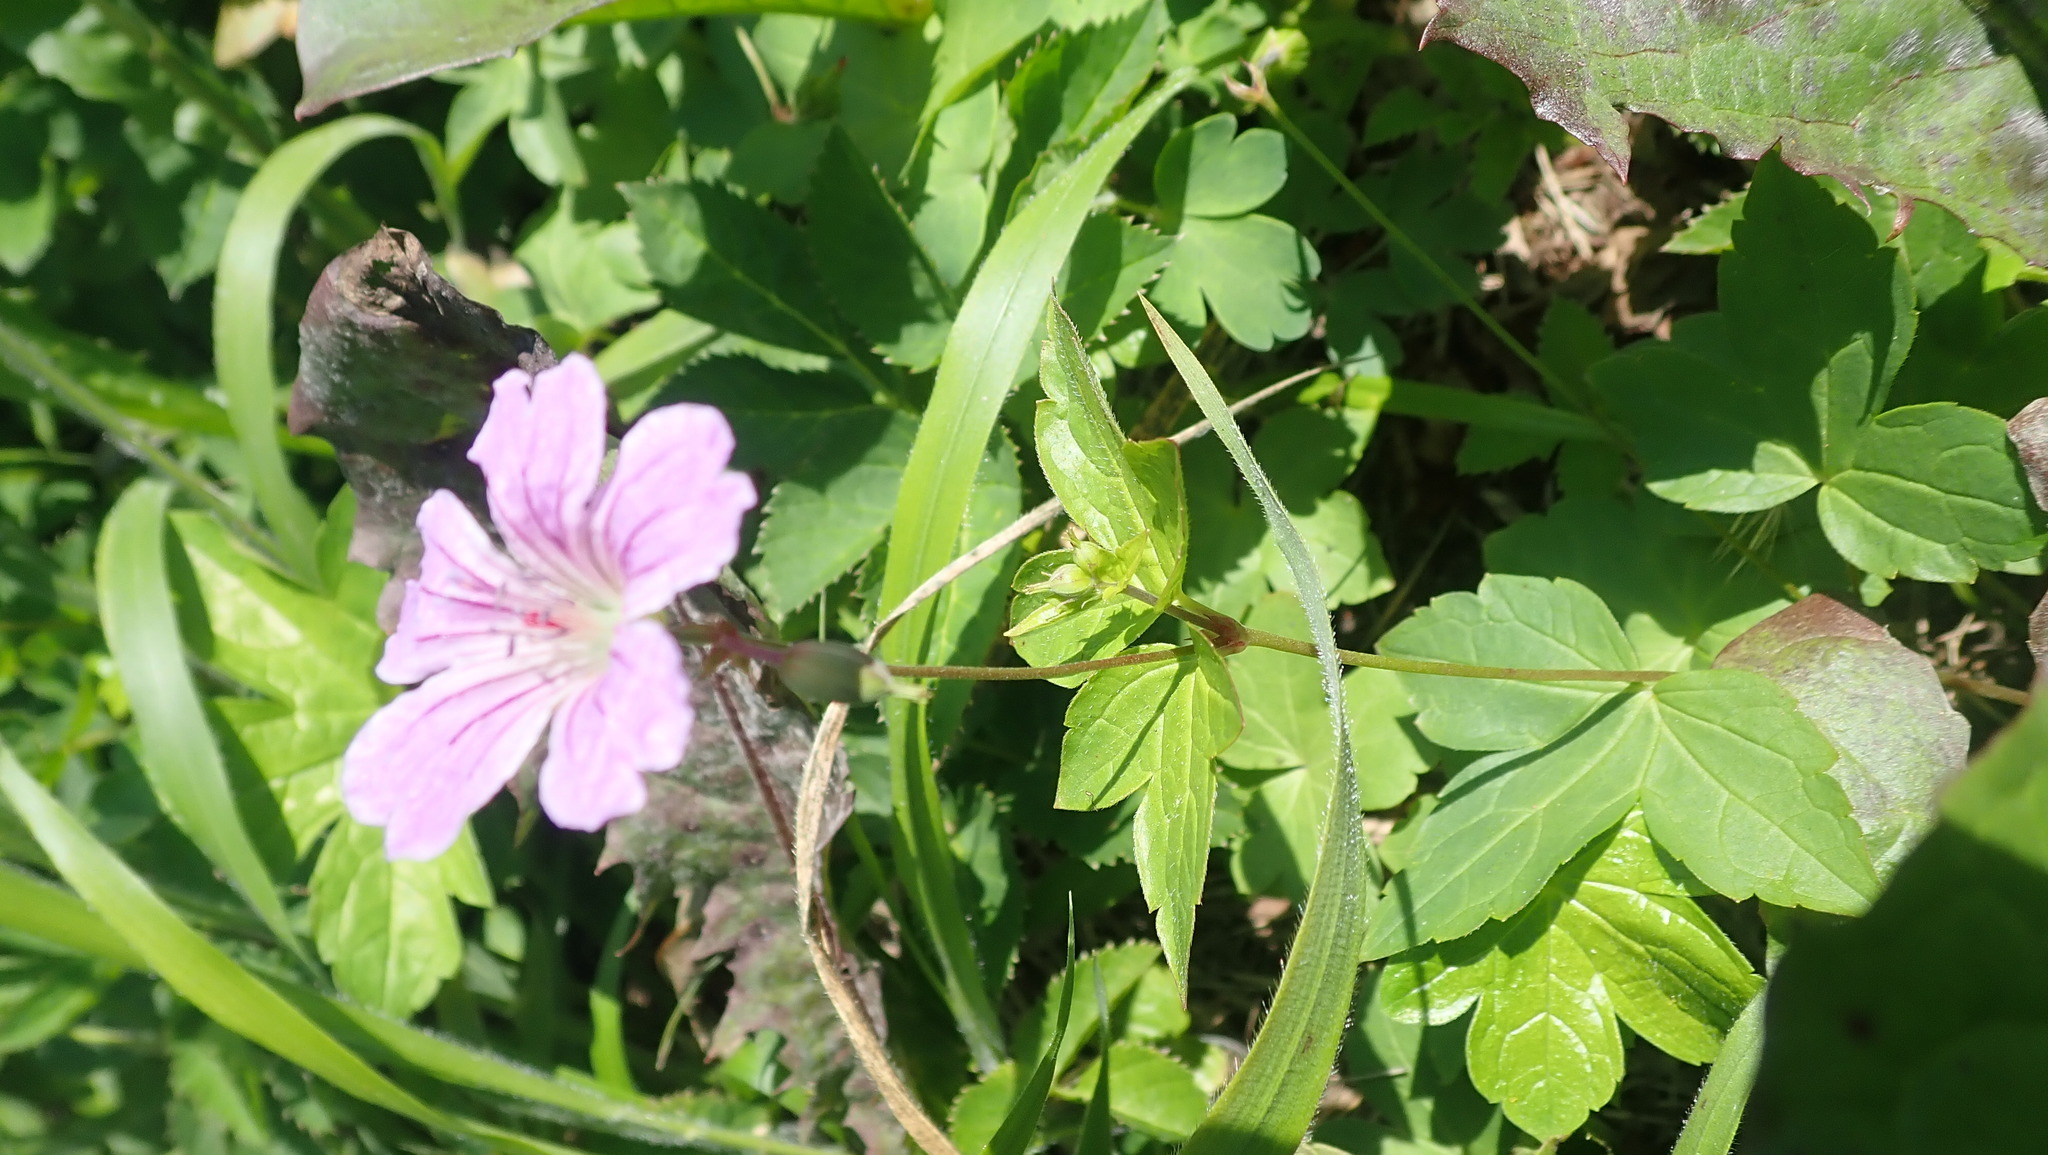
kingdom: Plantae
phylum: Tracheophyta
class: Magnoliopsida
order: Geraniales
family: Geraniaceae
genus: Geranium
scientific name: Geranium nodosum
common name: Knotted crane's-bill
